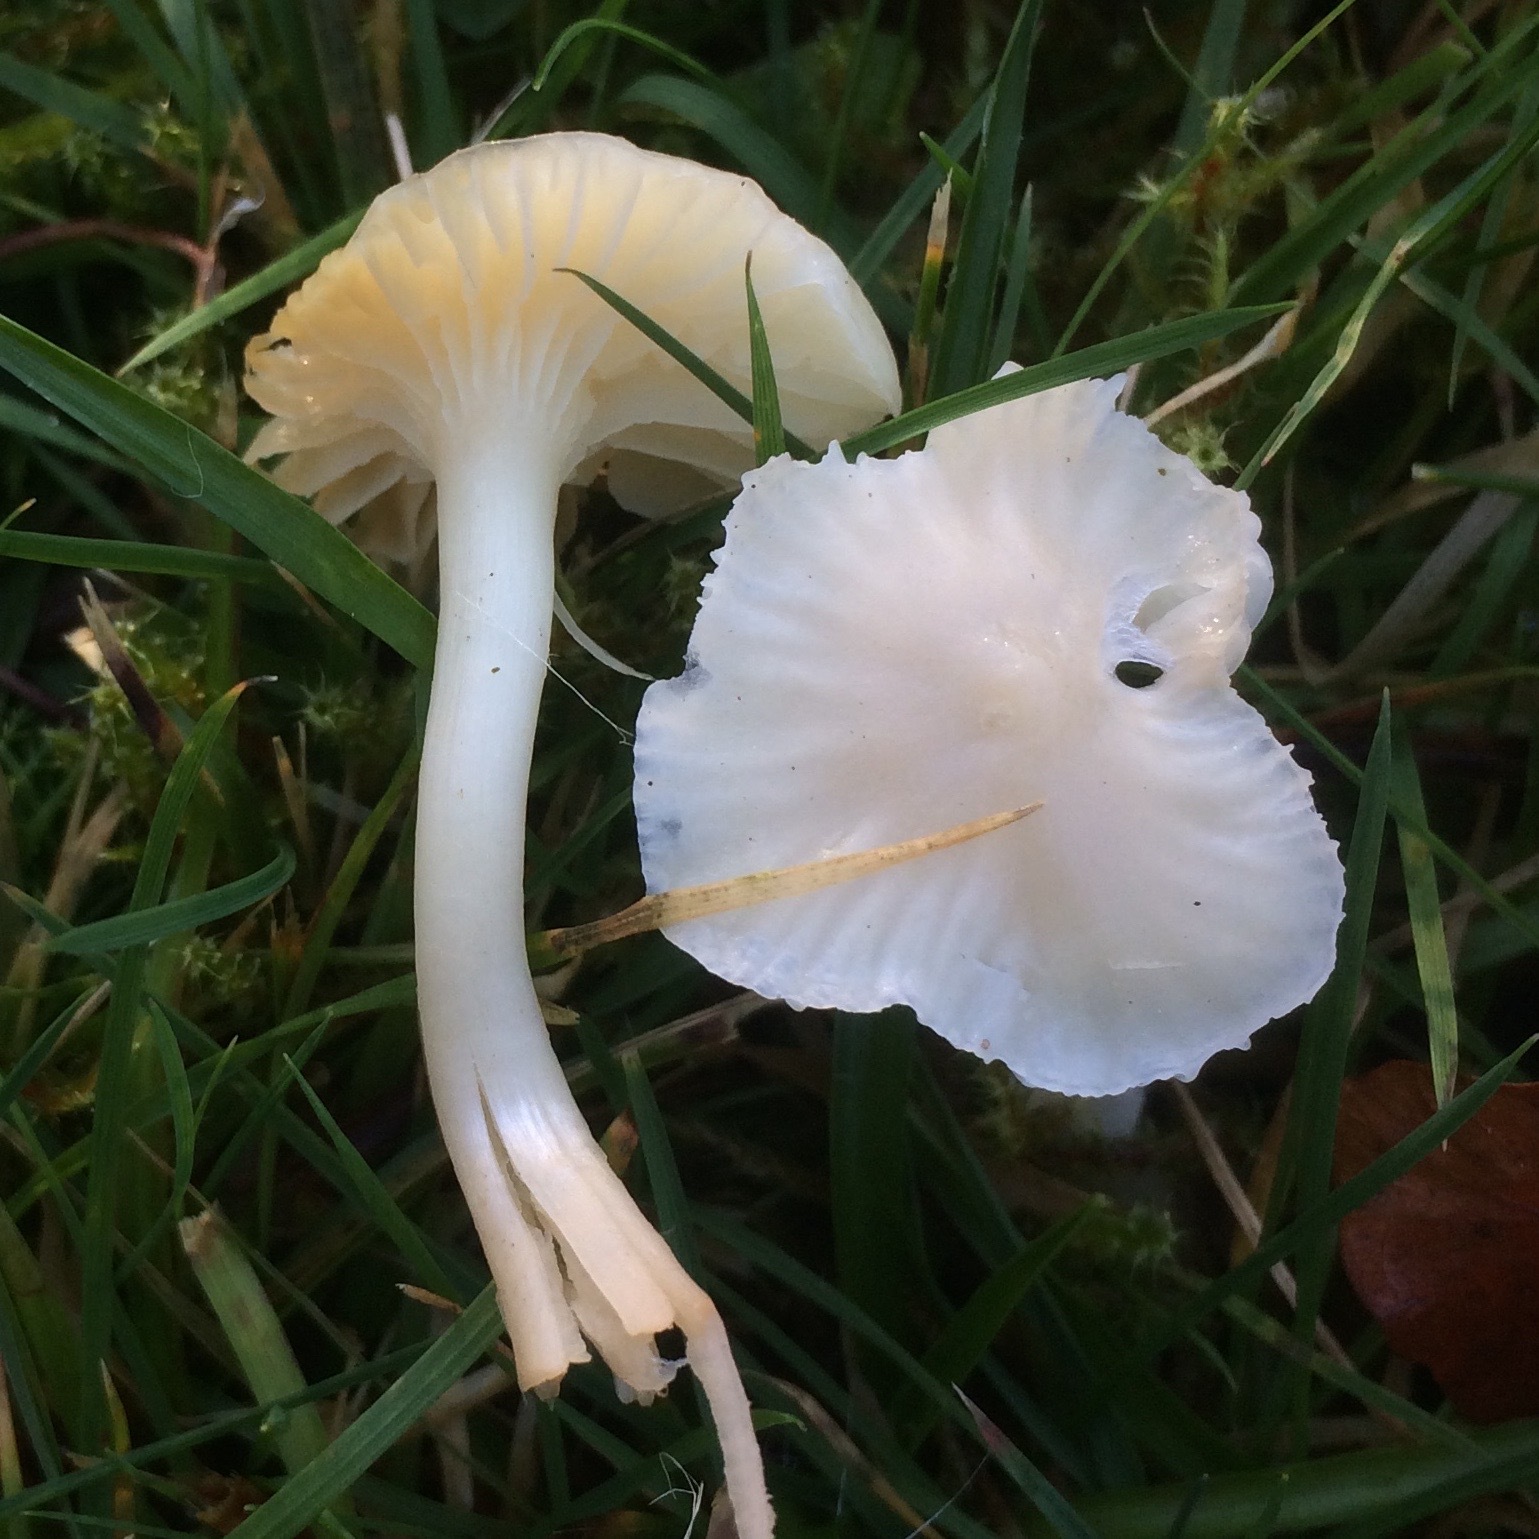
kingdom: Fungi
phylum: Basidiomycota
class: Agaricomycetes
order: Agaricales
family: Hygrophoraceae
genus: Cuphophyllus
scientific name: Cuphophyllus virgineus
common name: Snowy waxcap
